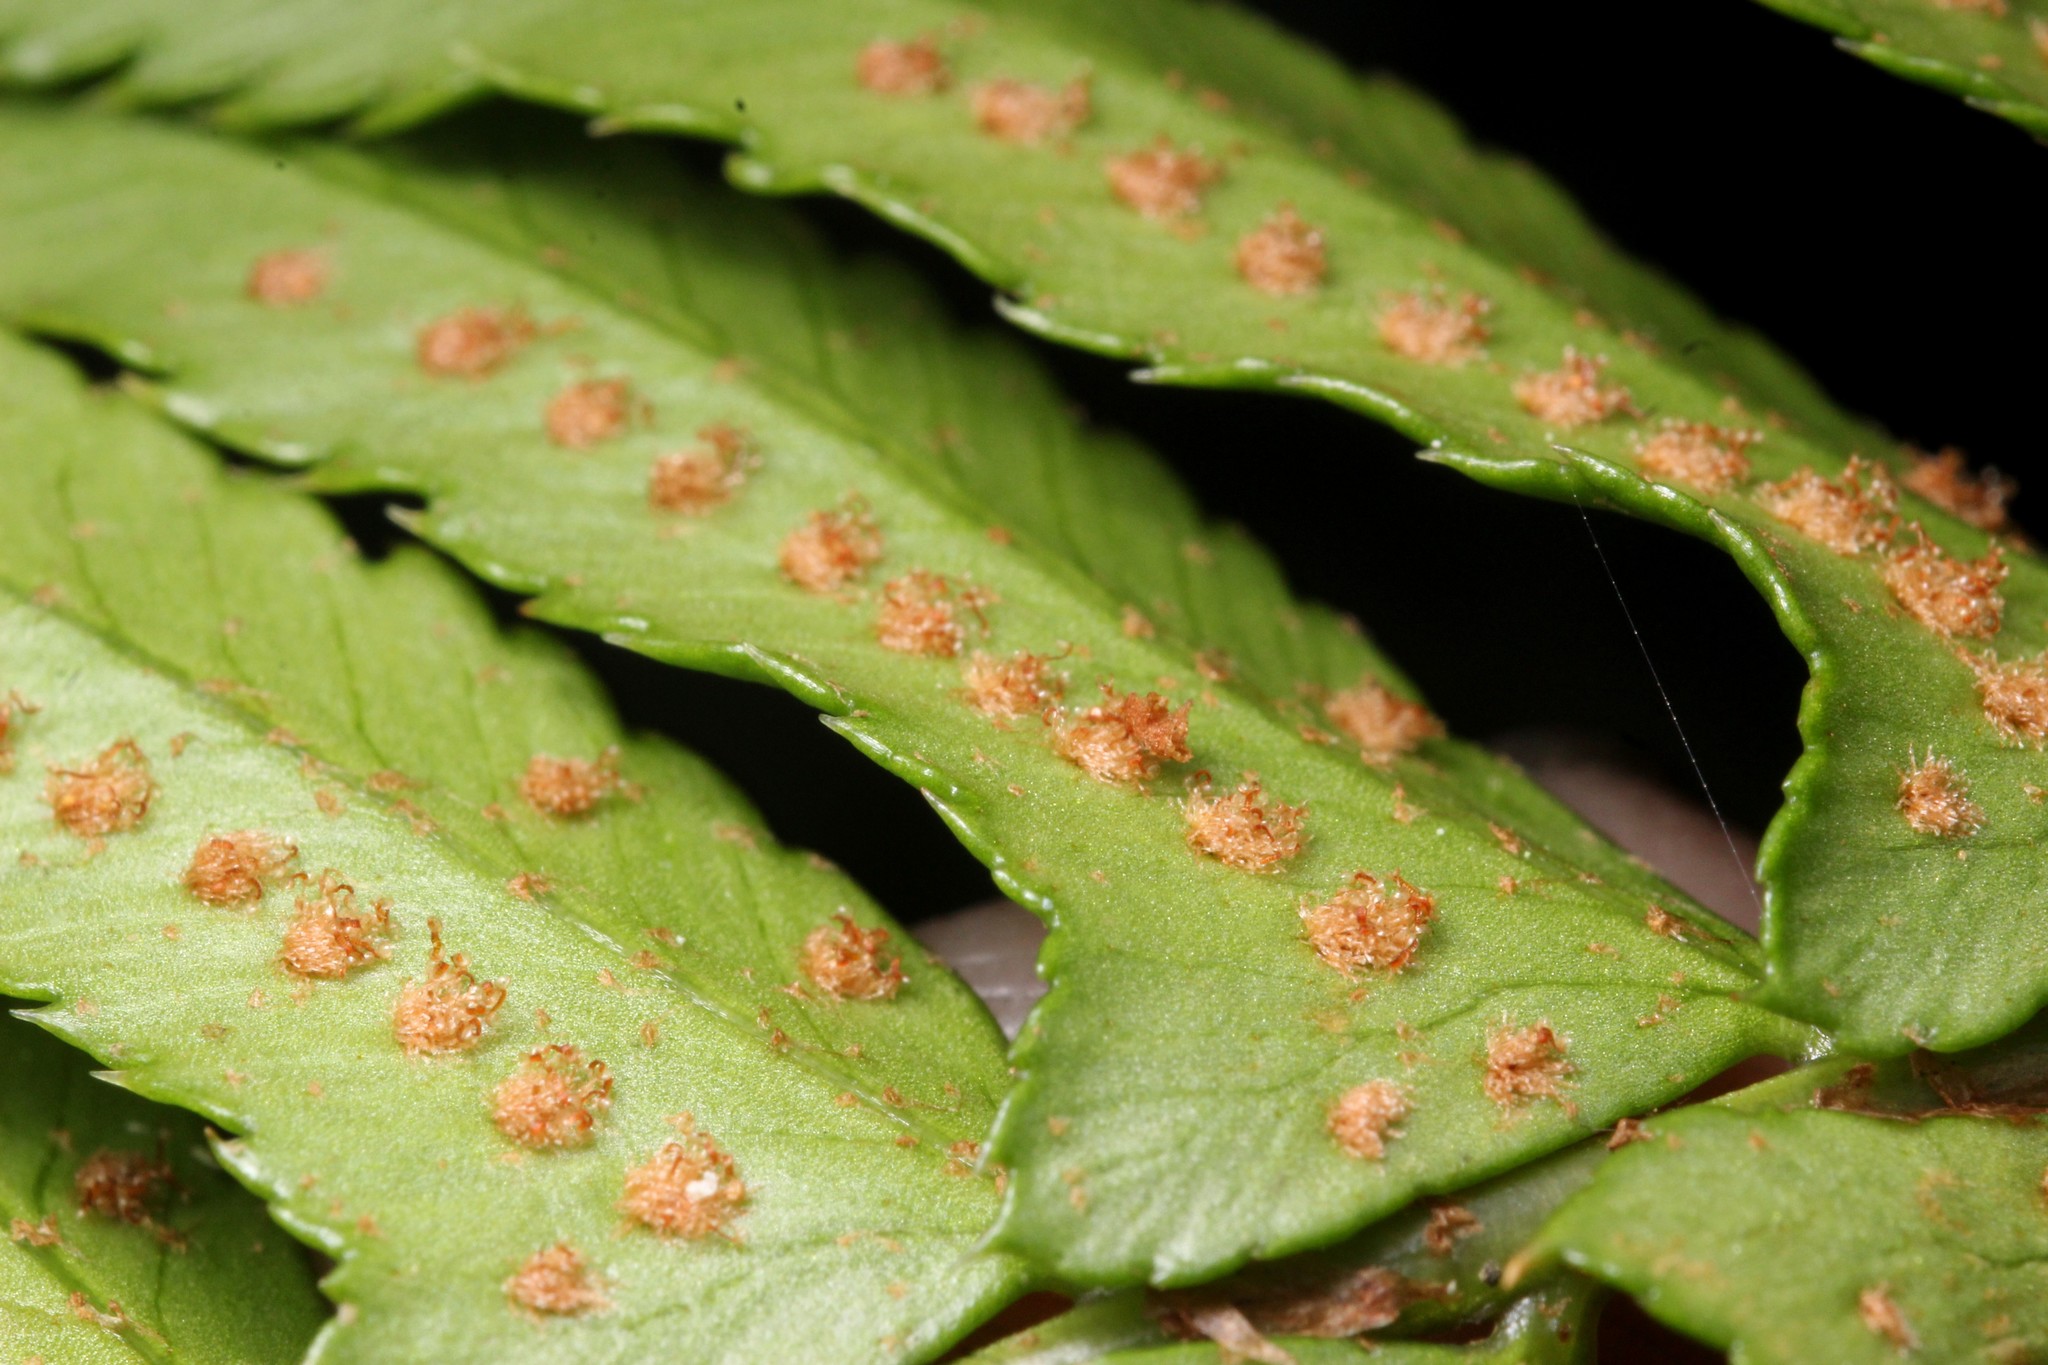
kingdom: Plantae
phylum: Tracheophyta
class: Polypodiopsida
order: Polypodiales
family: Dryopteridaceae
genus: Polystichum
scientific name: Polystichum munitum
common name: Western sword-fern
